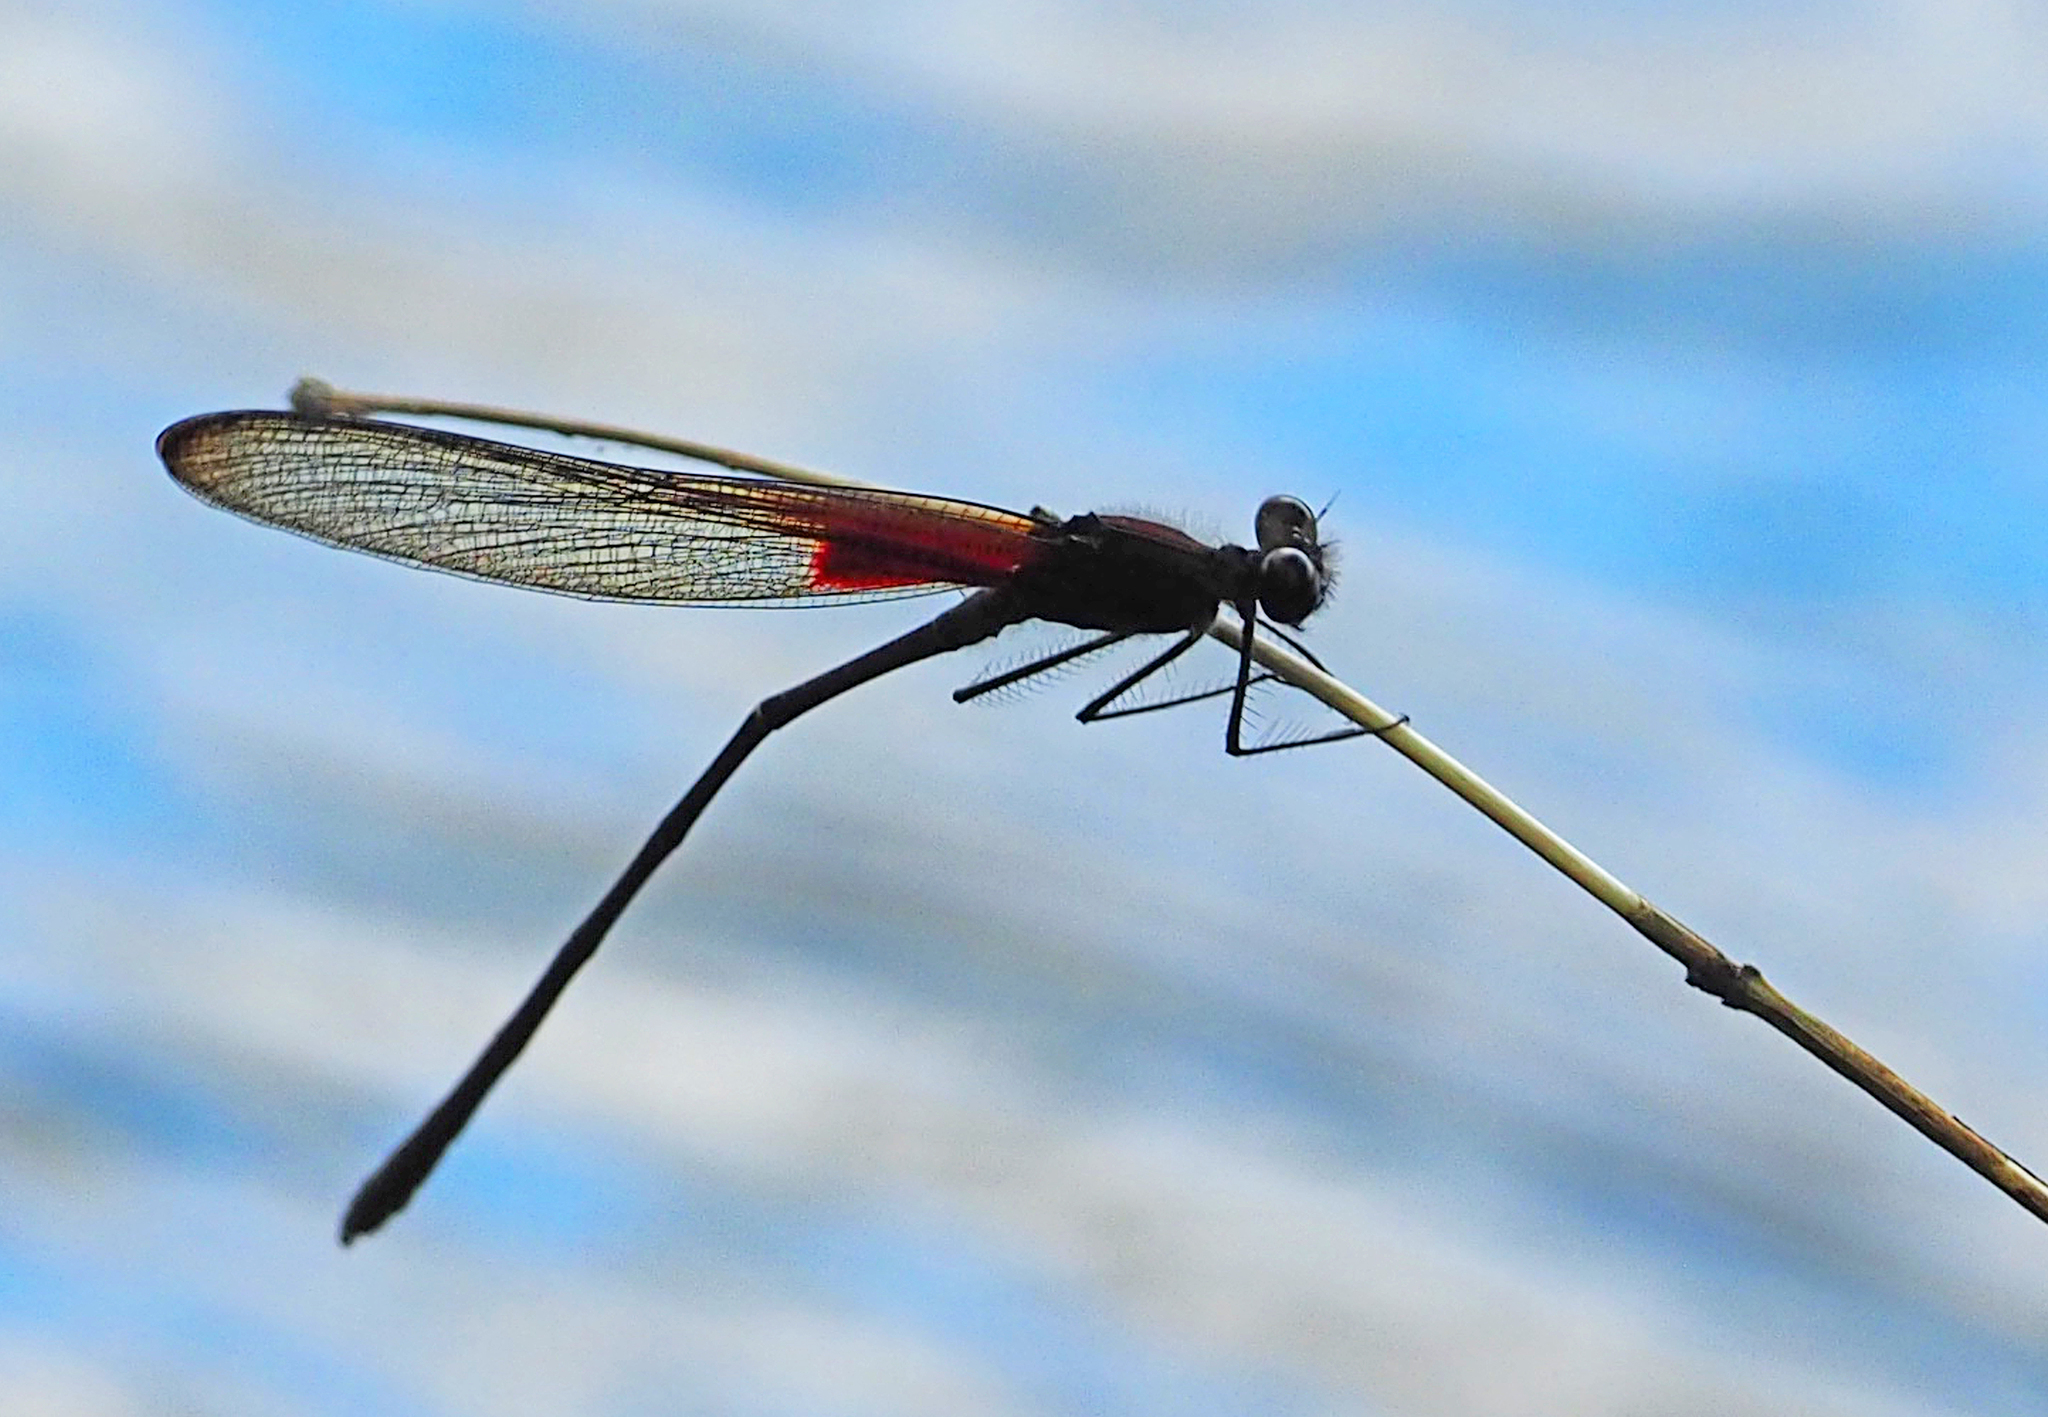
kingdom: Animalia
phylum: Arthropoda
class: Insecta
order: Odonata
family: Calopterygidae
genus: Hetaerina
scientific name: Hetaerina titia
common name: Smoky rubyspot
